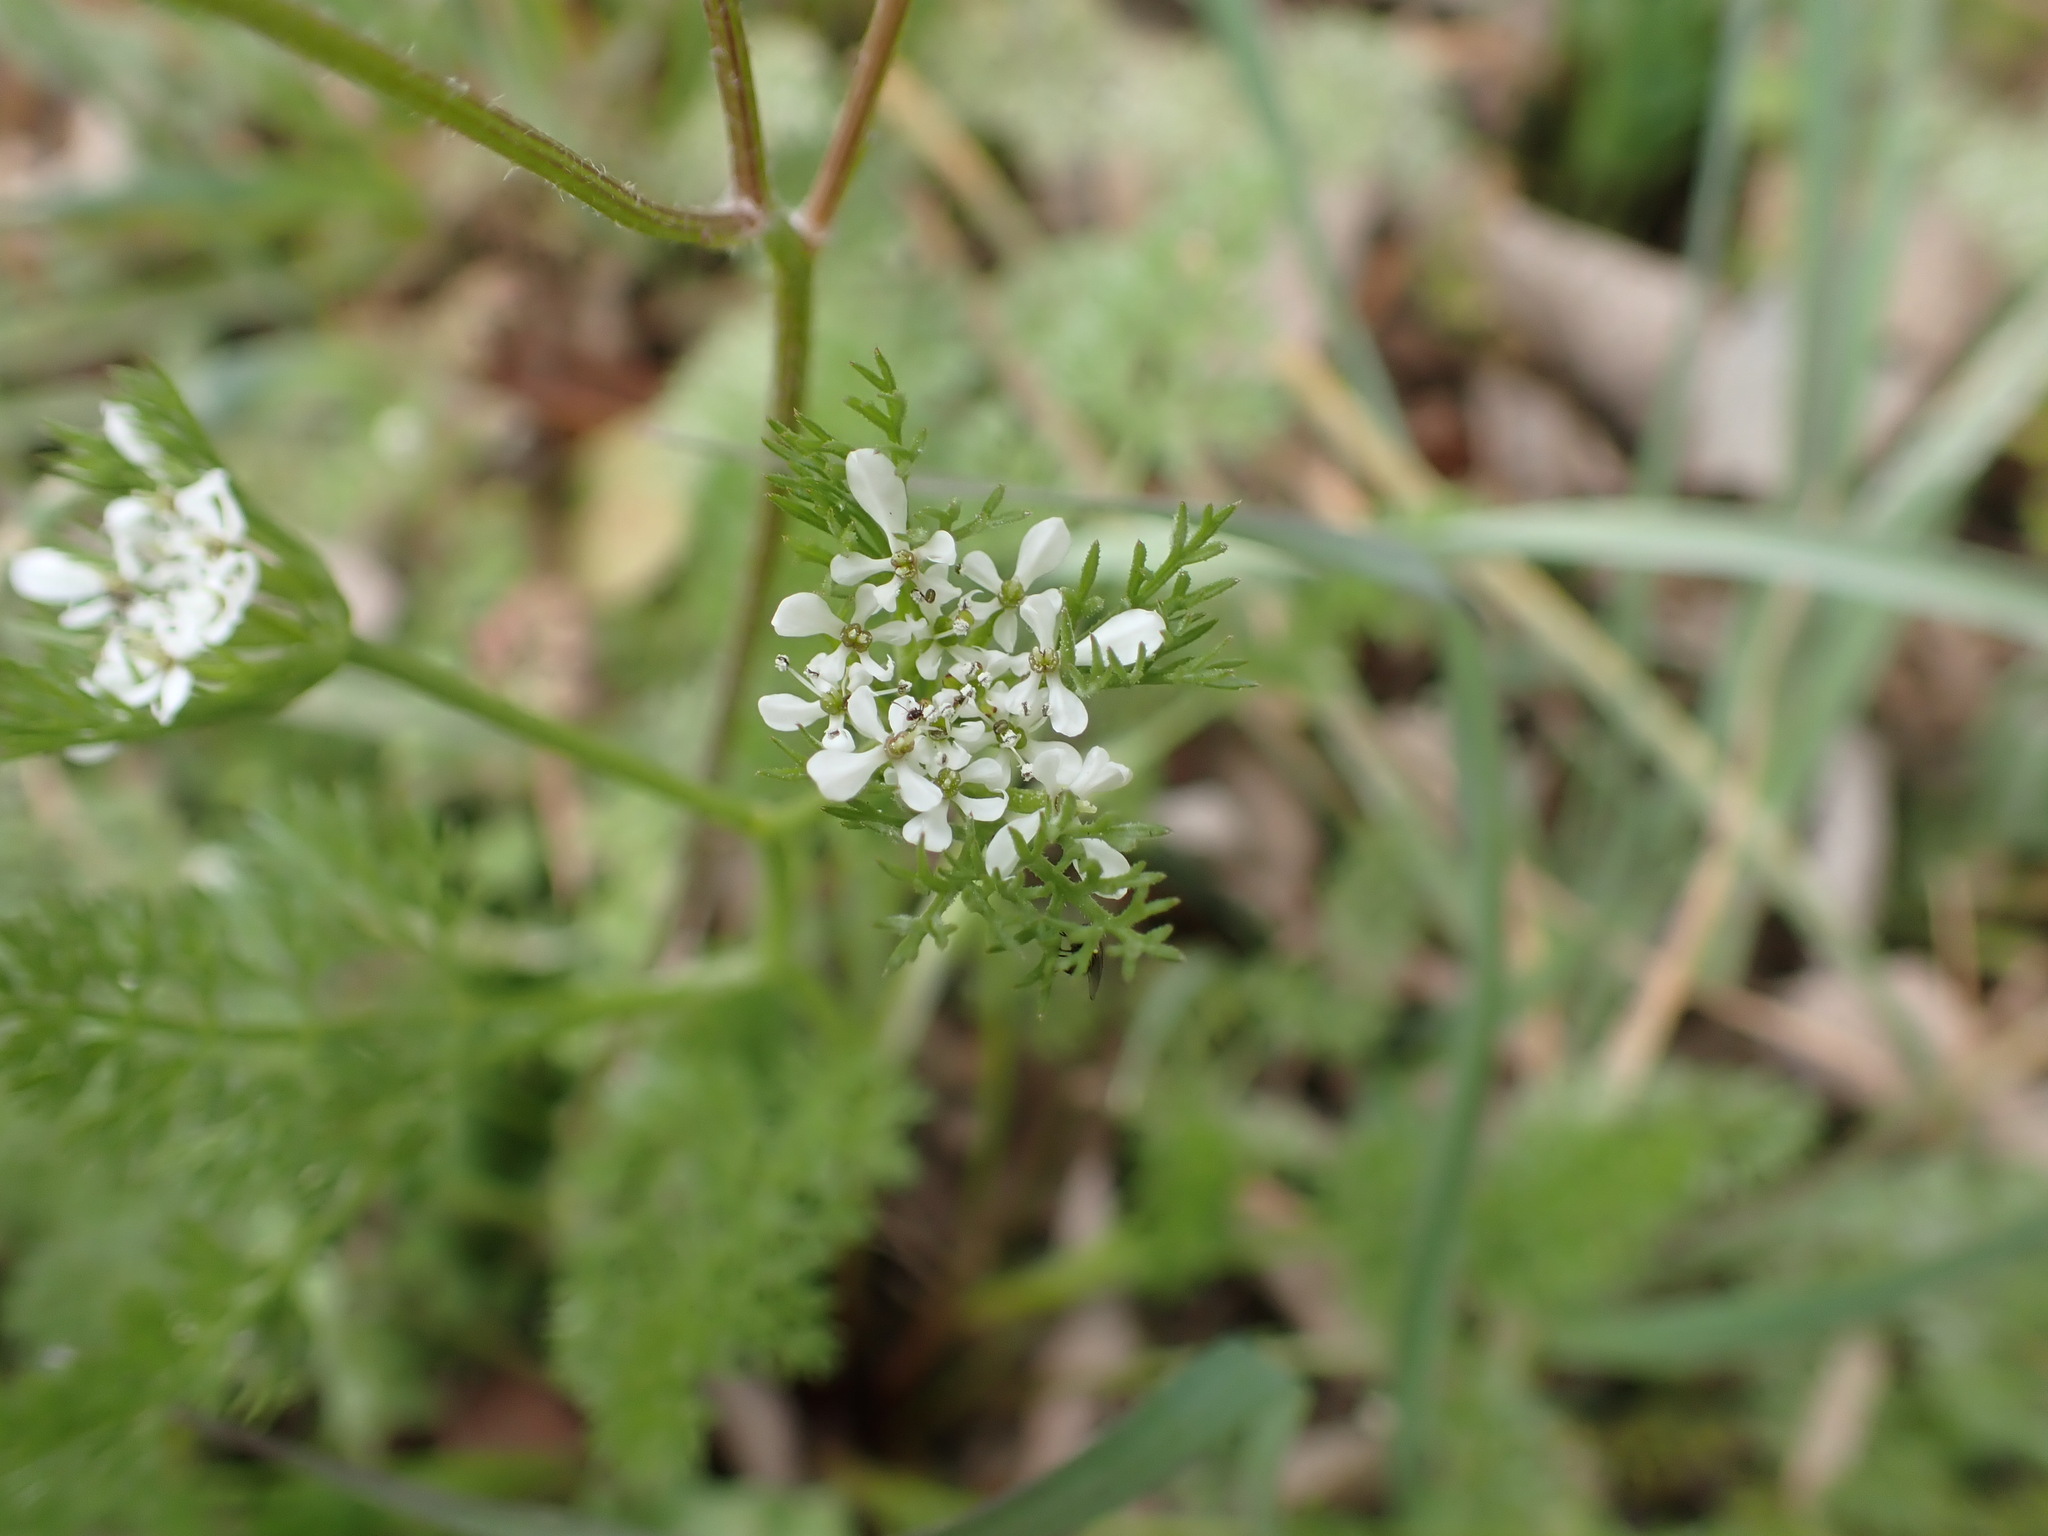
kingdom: Plantae
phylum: Tracheophyta
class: Magnoliopsida
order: Apiales
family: Apiaceae
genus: Scandix
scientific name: Scandix pecten-veneris
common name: Shepherd's-needle
